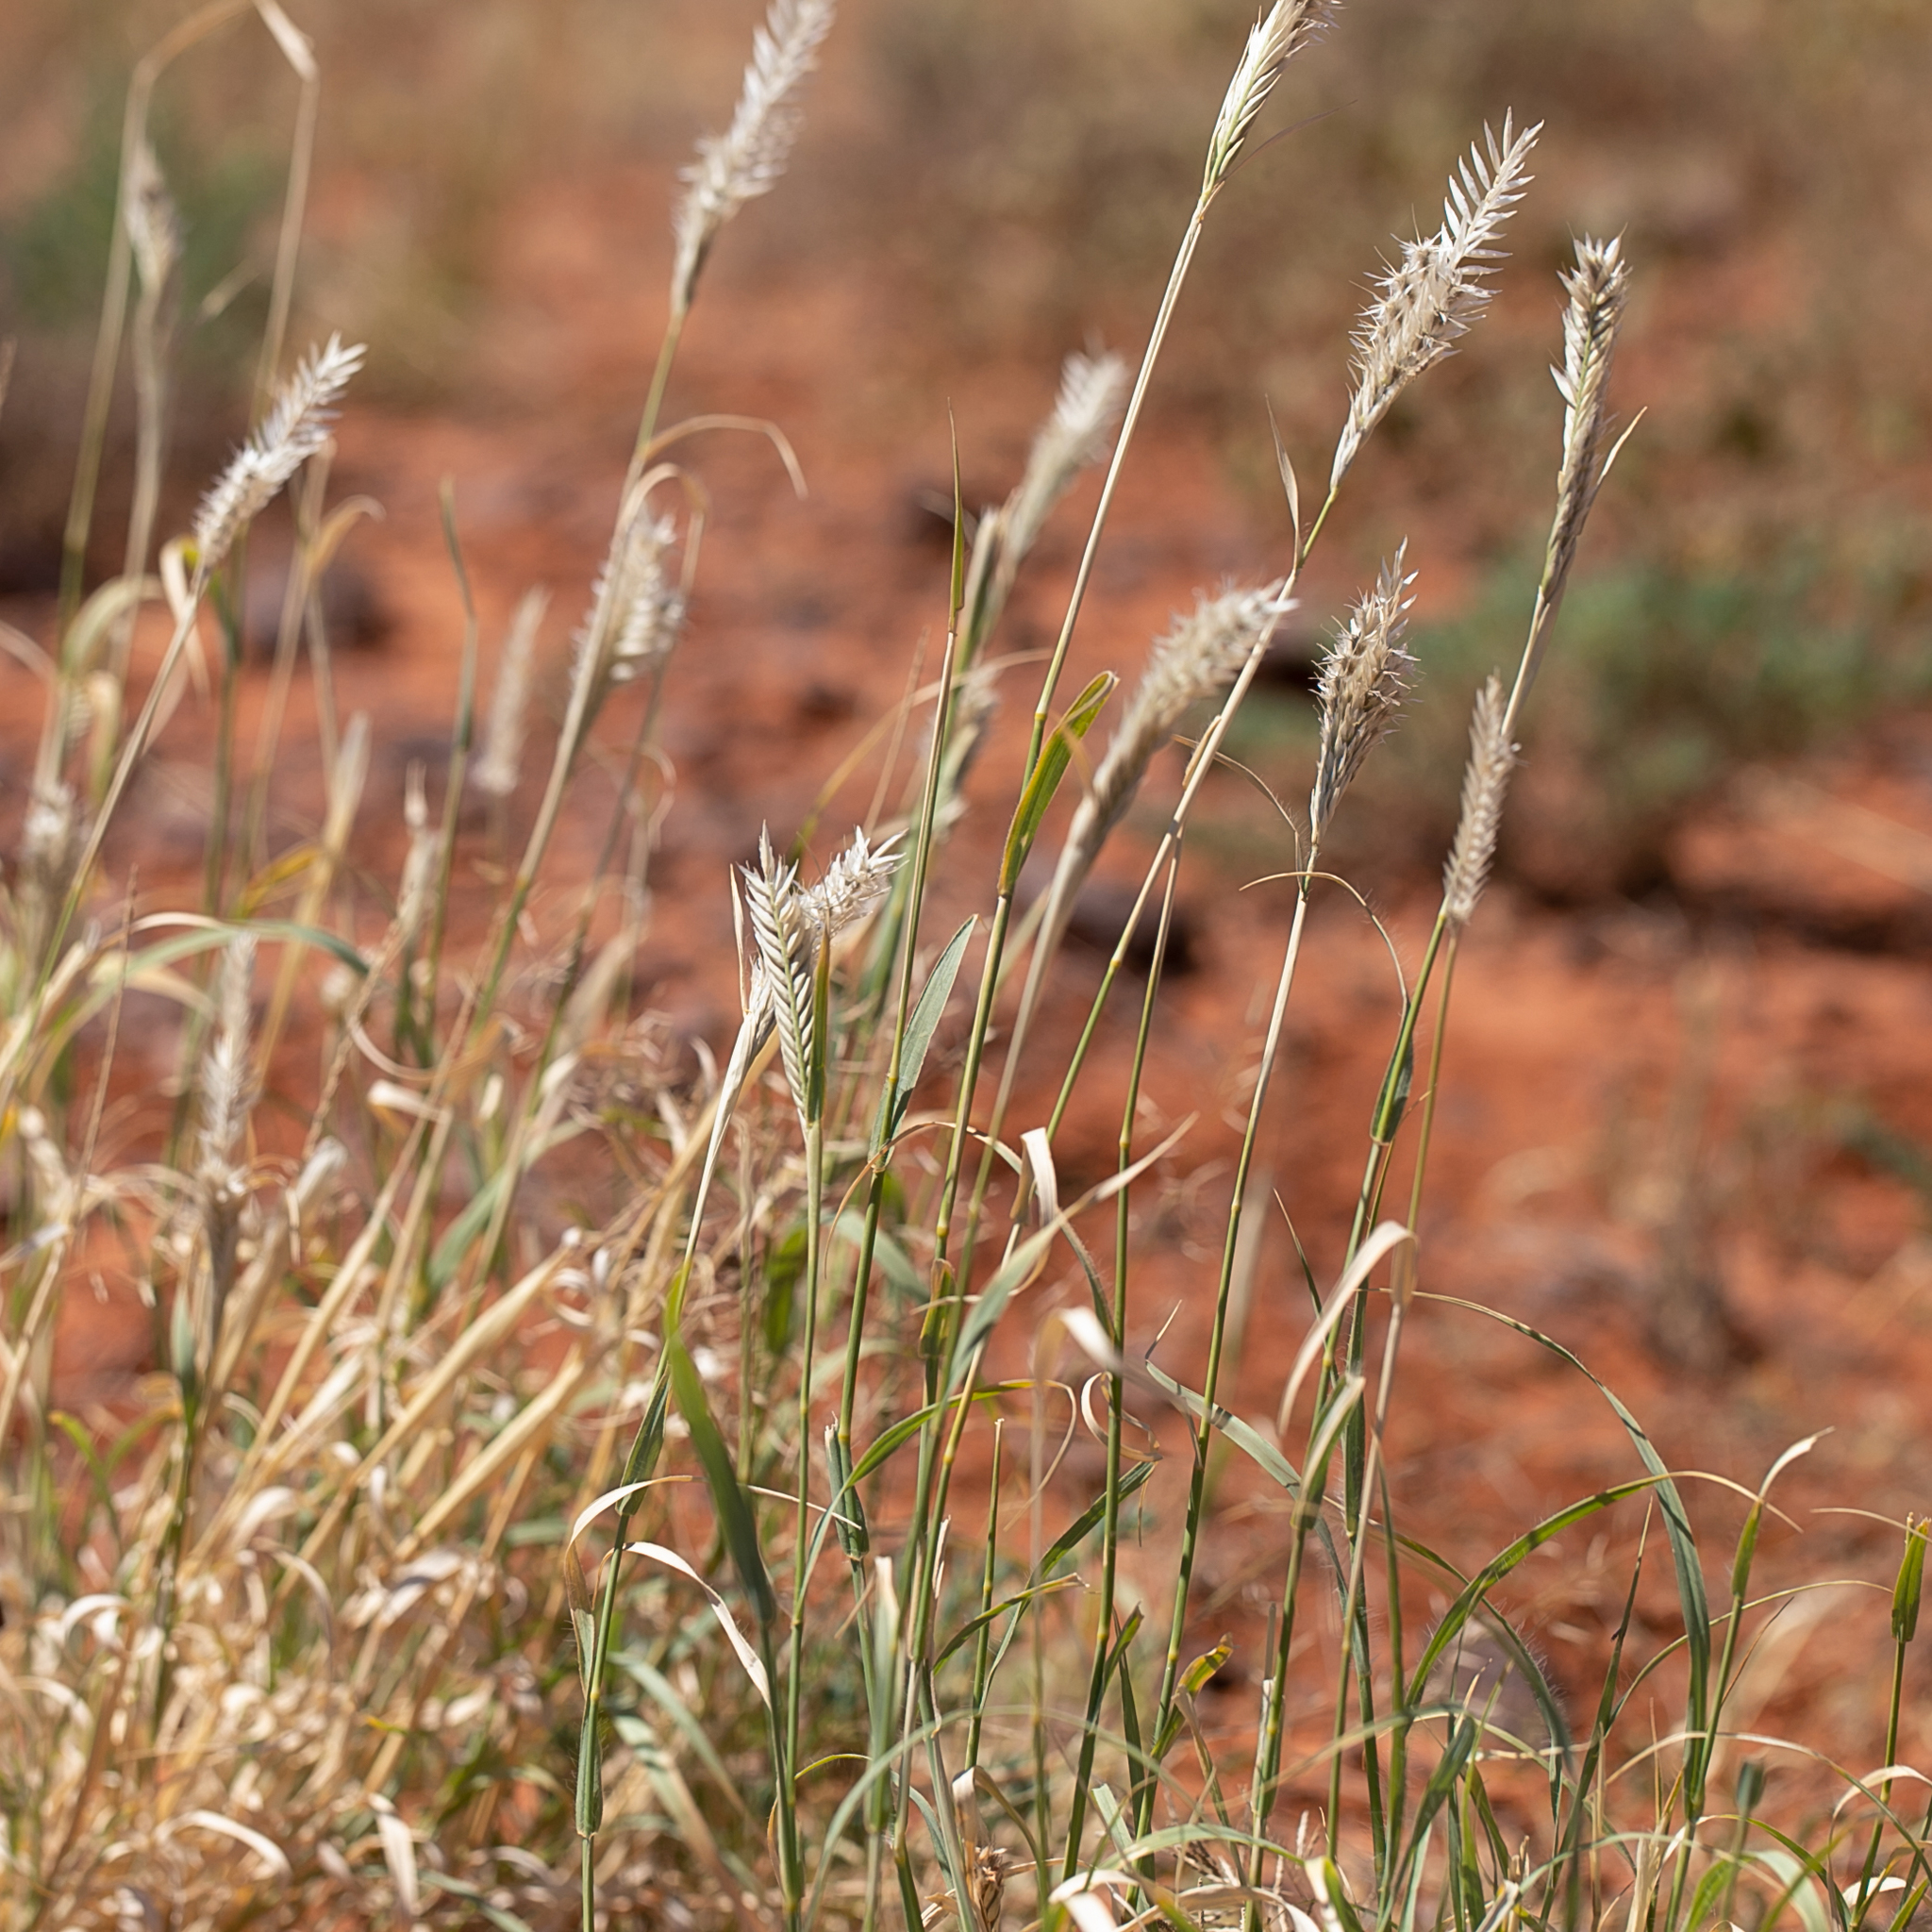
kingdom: Plantae
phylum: Tracheophyta
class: Liliopsida
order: Poales
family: Poaceae
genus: Astrebla
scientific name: Astrebla pectinata
